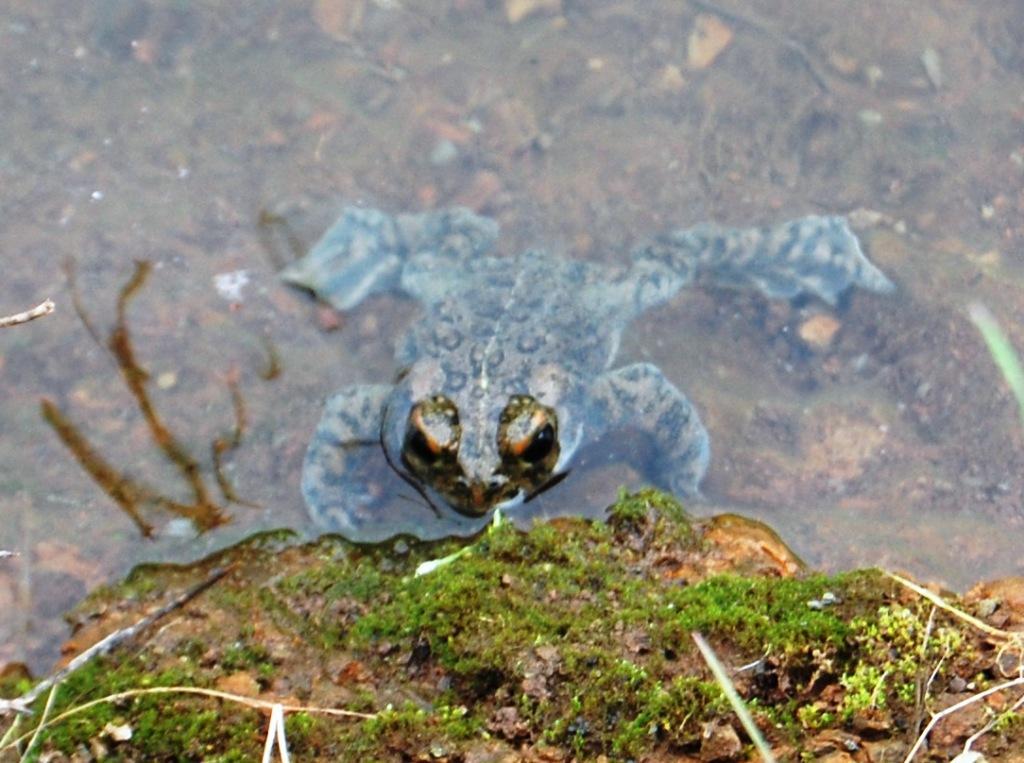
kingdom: Animalia
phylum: Chordata
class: Amphibia
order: Anura
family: Bufonidae
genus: Anaxyrus
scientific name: Anaxyrus boreas
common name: Western toad
